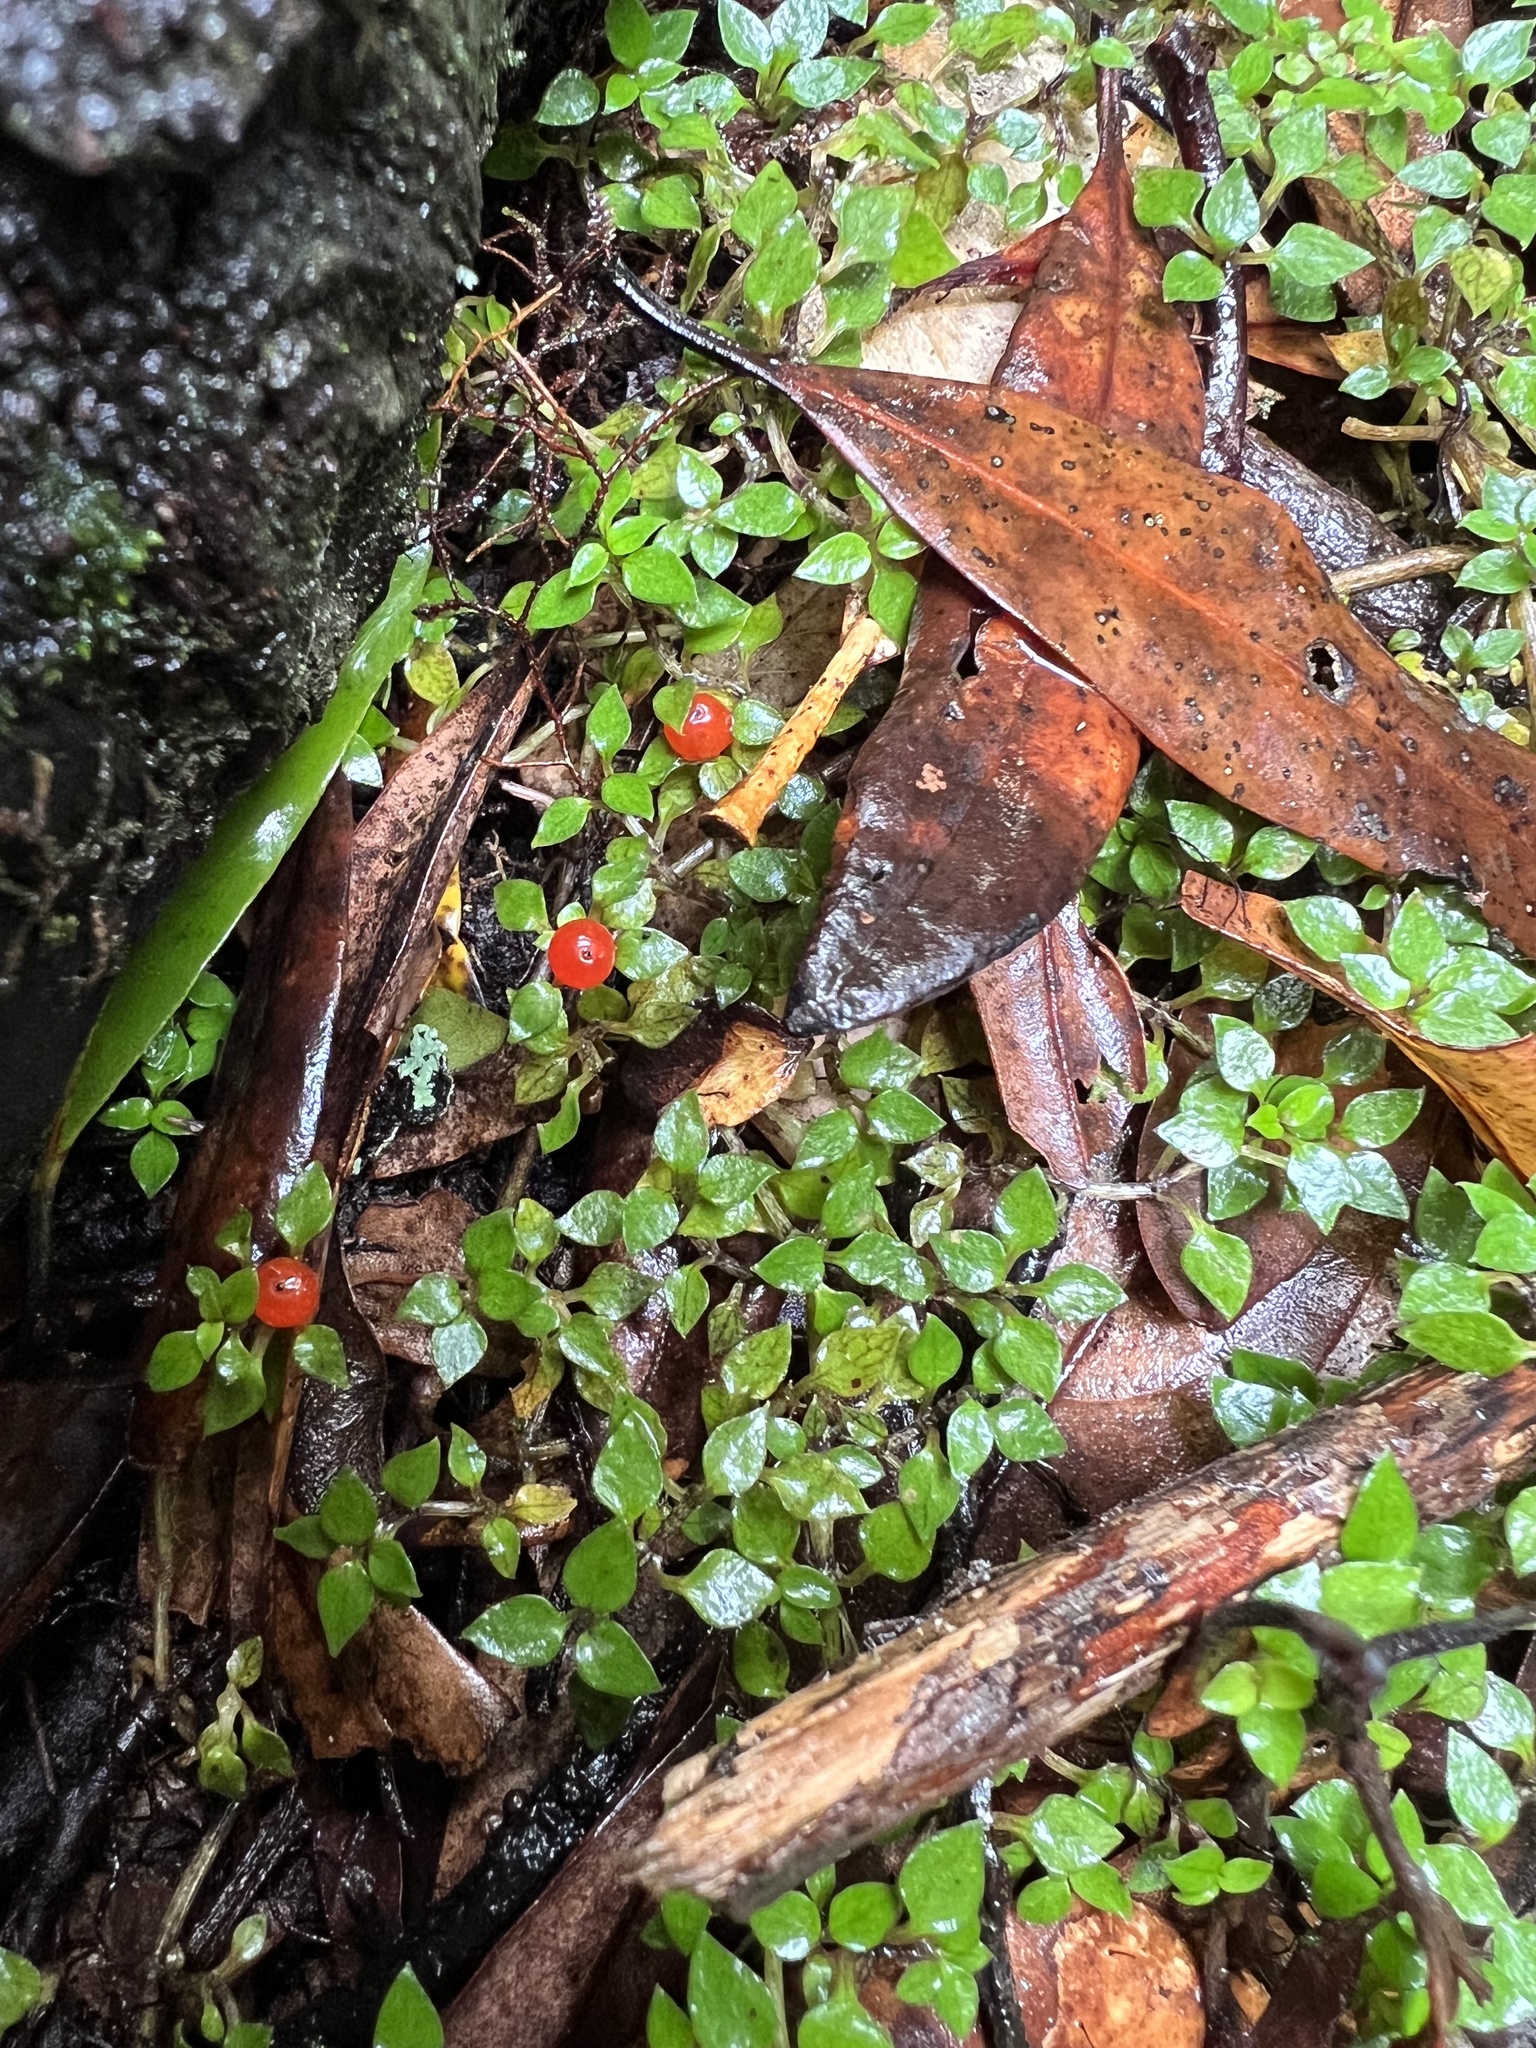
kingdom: Plantae
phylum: Tracheophyta
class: Magnoliopsida
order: Gentianales
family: Rubiaceae
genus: Nertera
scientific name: Nertera granadensis
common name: Beadplant
